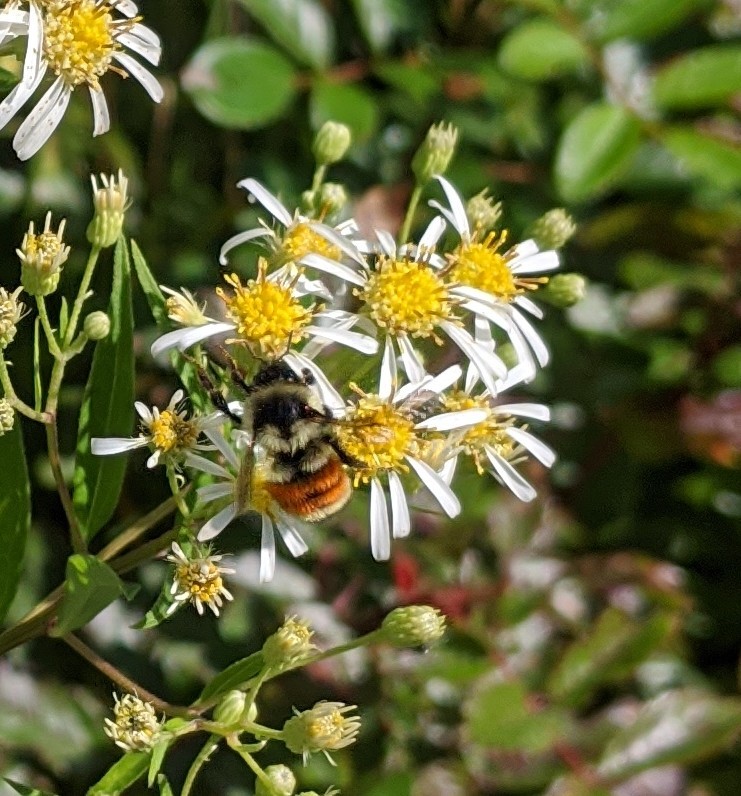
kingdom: Animalia
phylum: Arthropoda
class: Insecta
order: Hymenoptera
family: Apidae
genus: Bombus
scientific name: Bombus ternarius
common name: Tri-colored bumble bee
